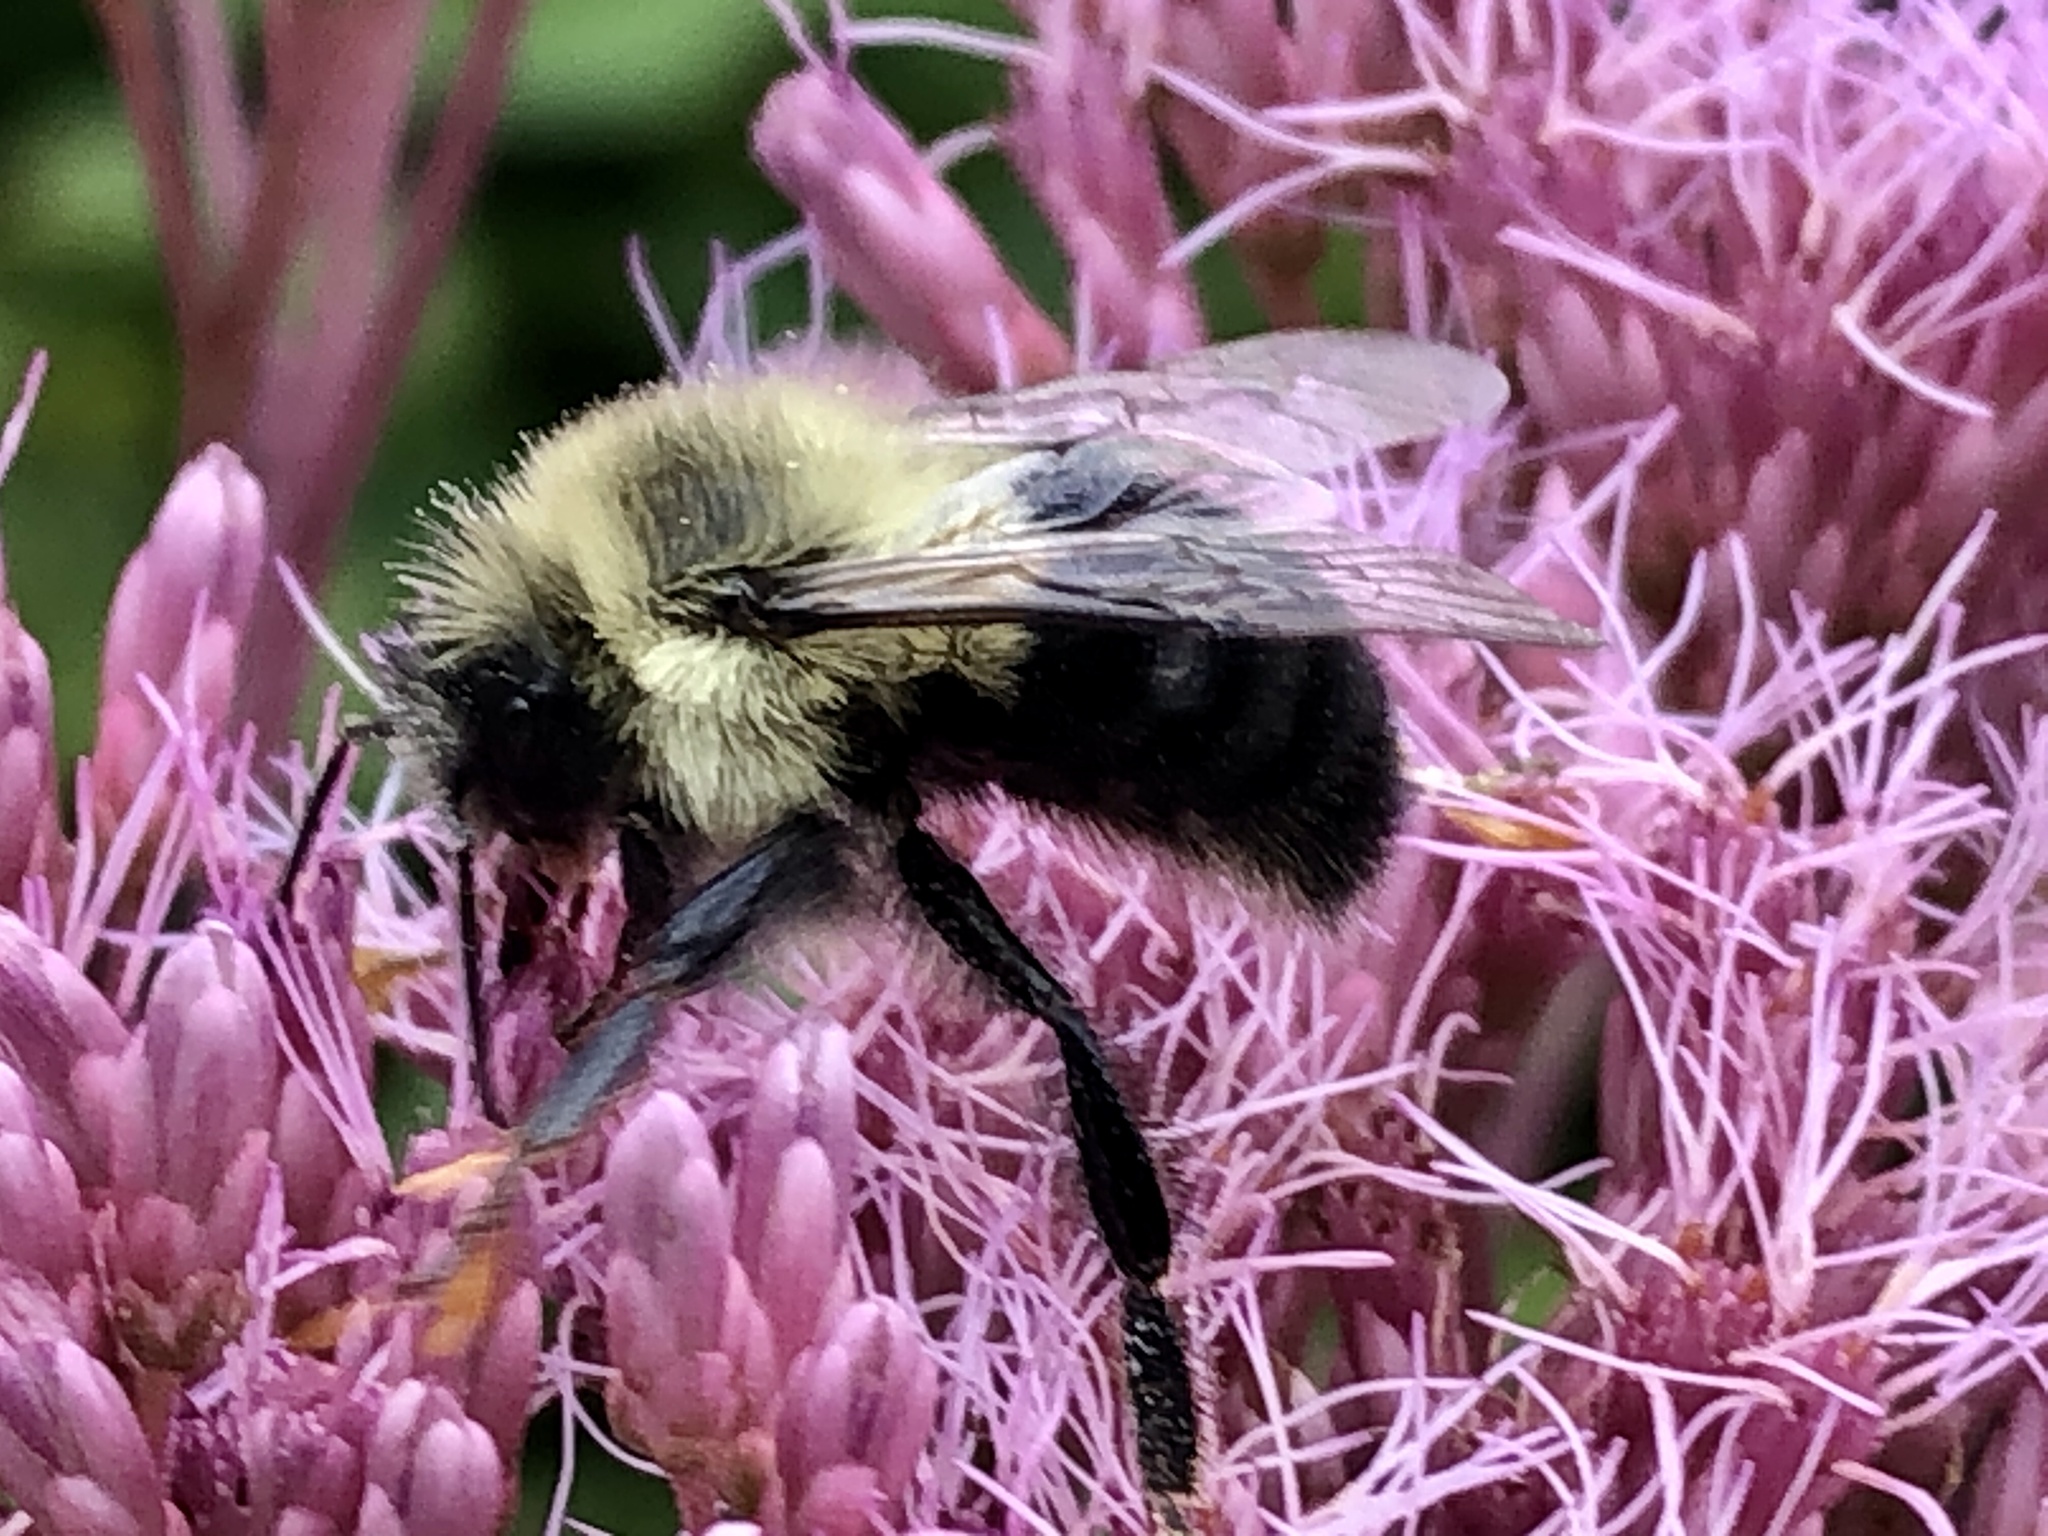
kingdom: Animalia
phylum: Arthropoda
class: Insecta
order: Hymenoptera
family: Apidae
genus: Bombus
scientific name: Bombus impatiens
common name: Common eastern bumble bee
